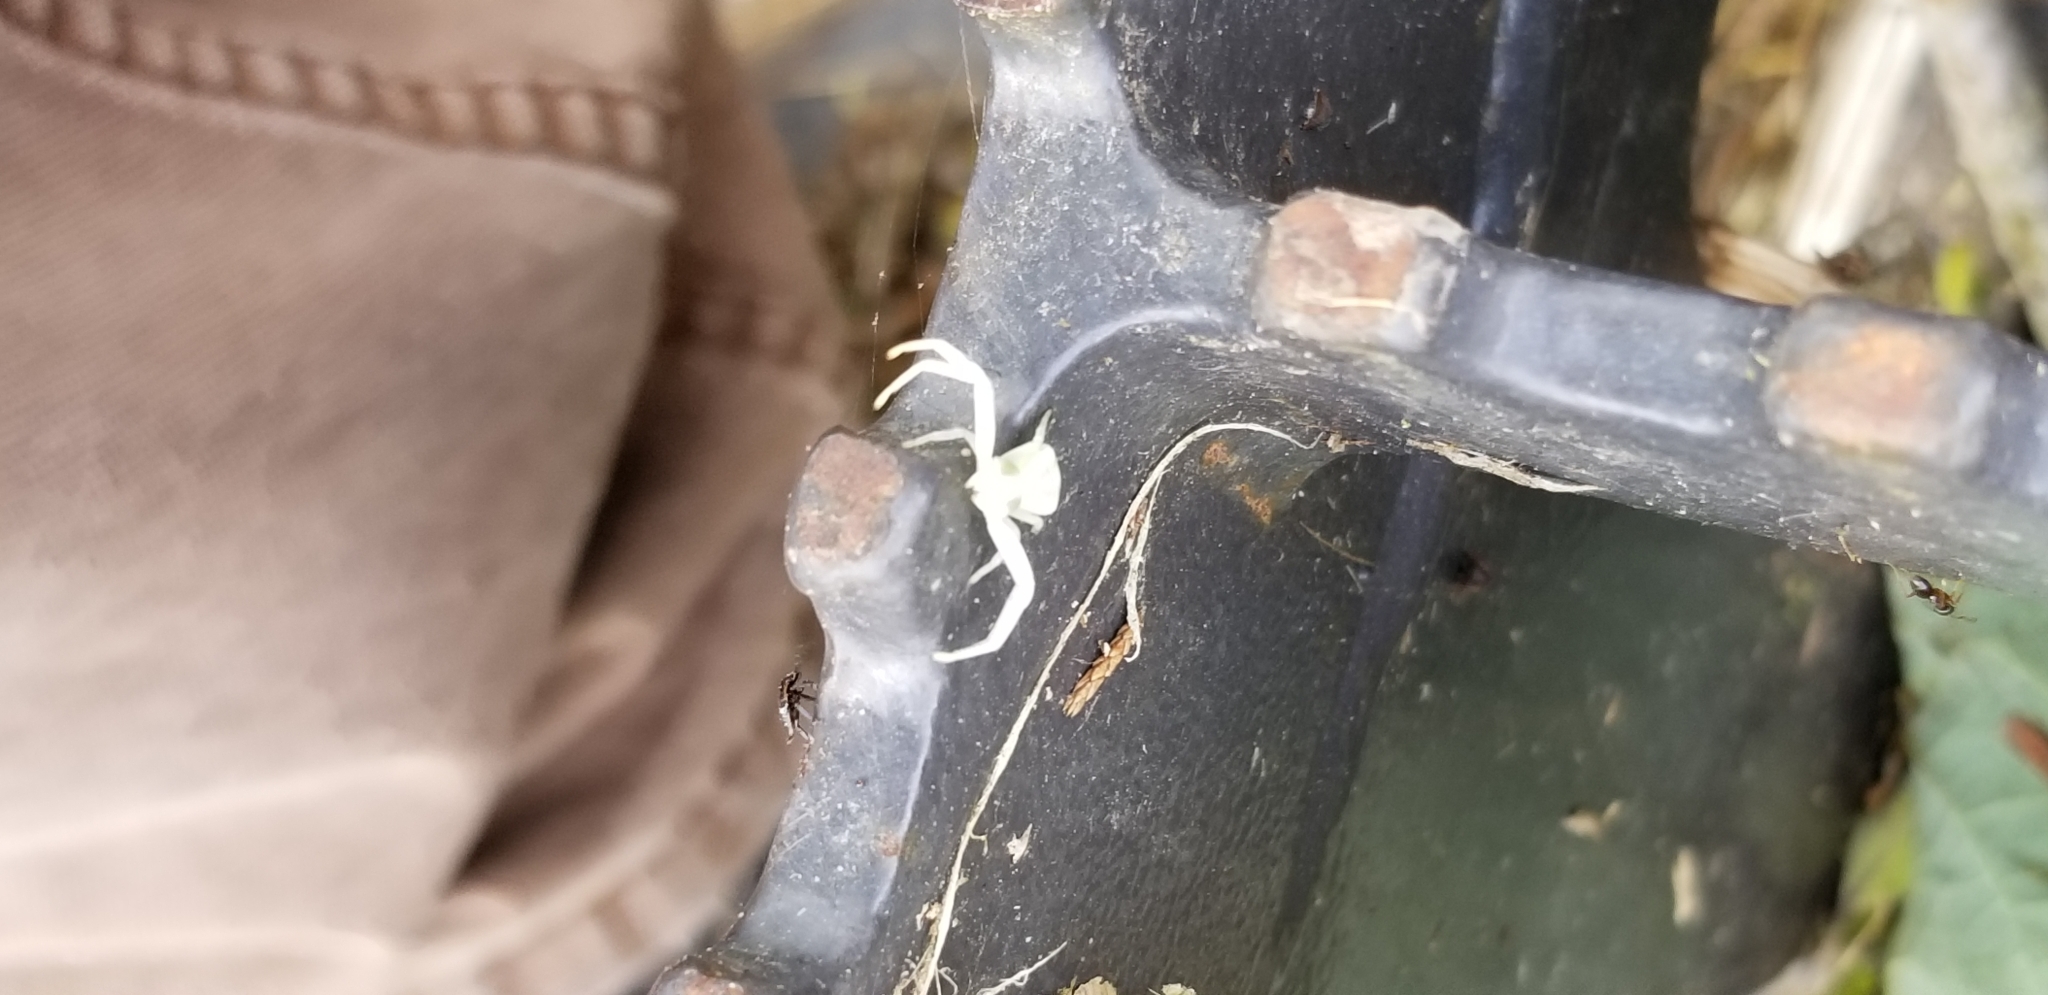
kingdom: Animalia
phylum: Arthropoda
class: Arachnida
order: Araneae
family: Thomisidae
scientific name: Thomisidae
